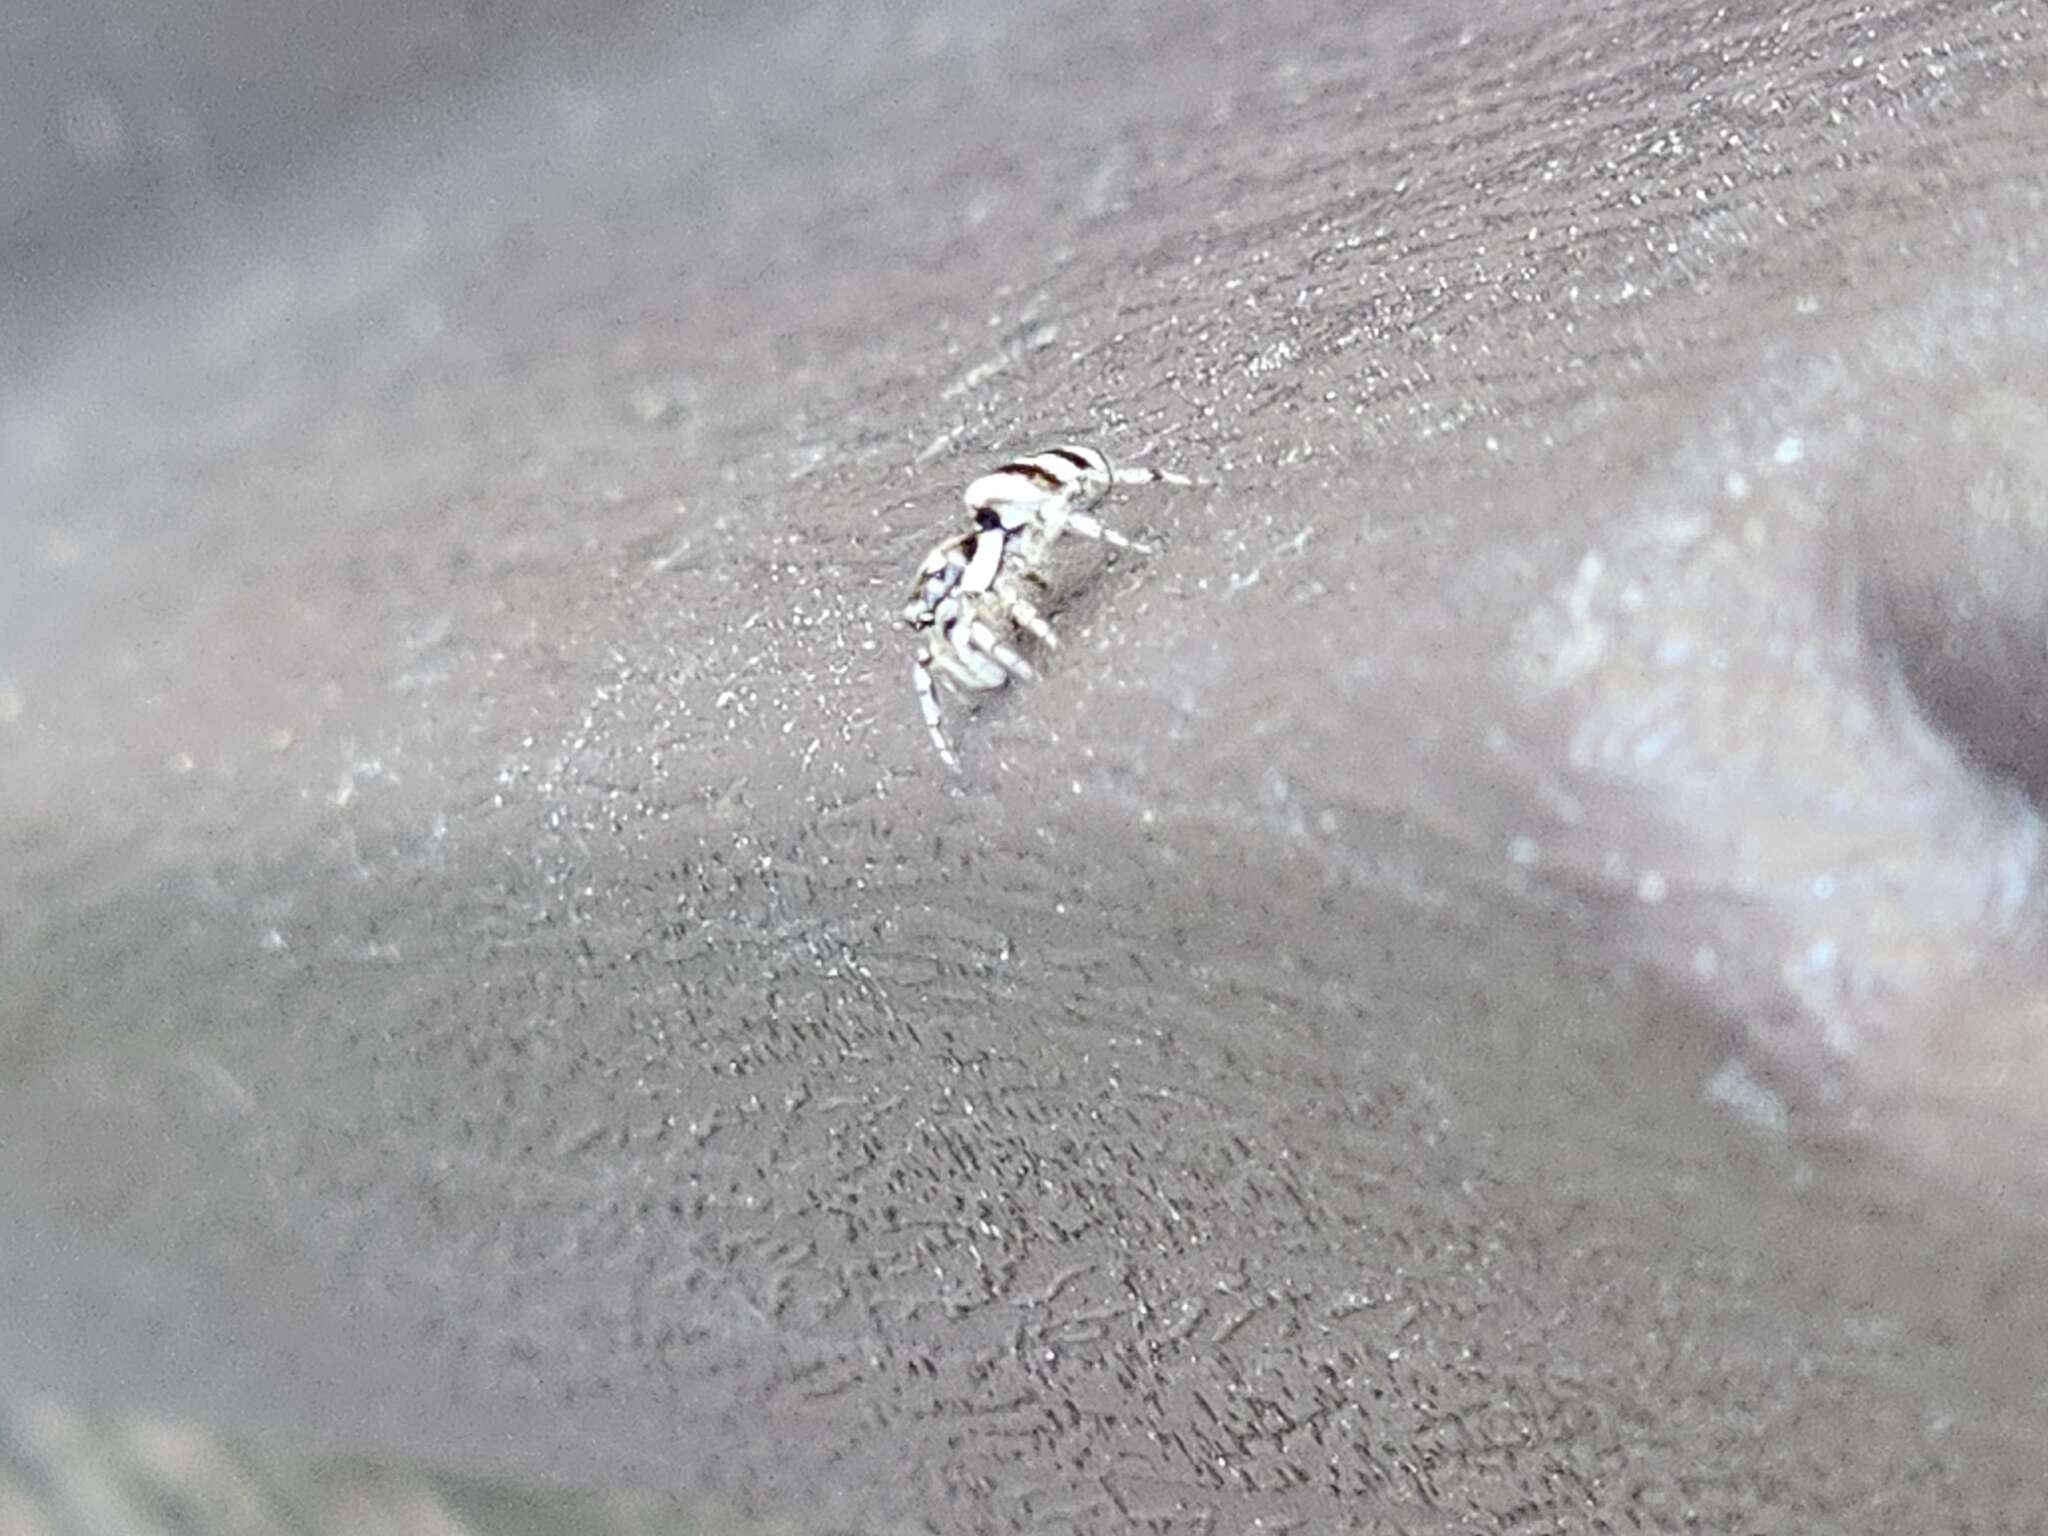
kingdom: Animalia
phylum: Arthropoda
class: Arachnida
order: Araneae
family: Salticidae
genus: Salticus
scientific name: Salticus scenicus
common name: Zebra jumper
